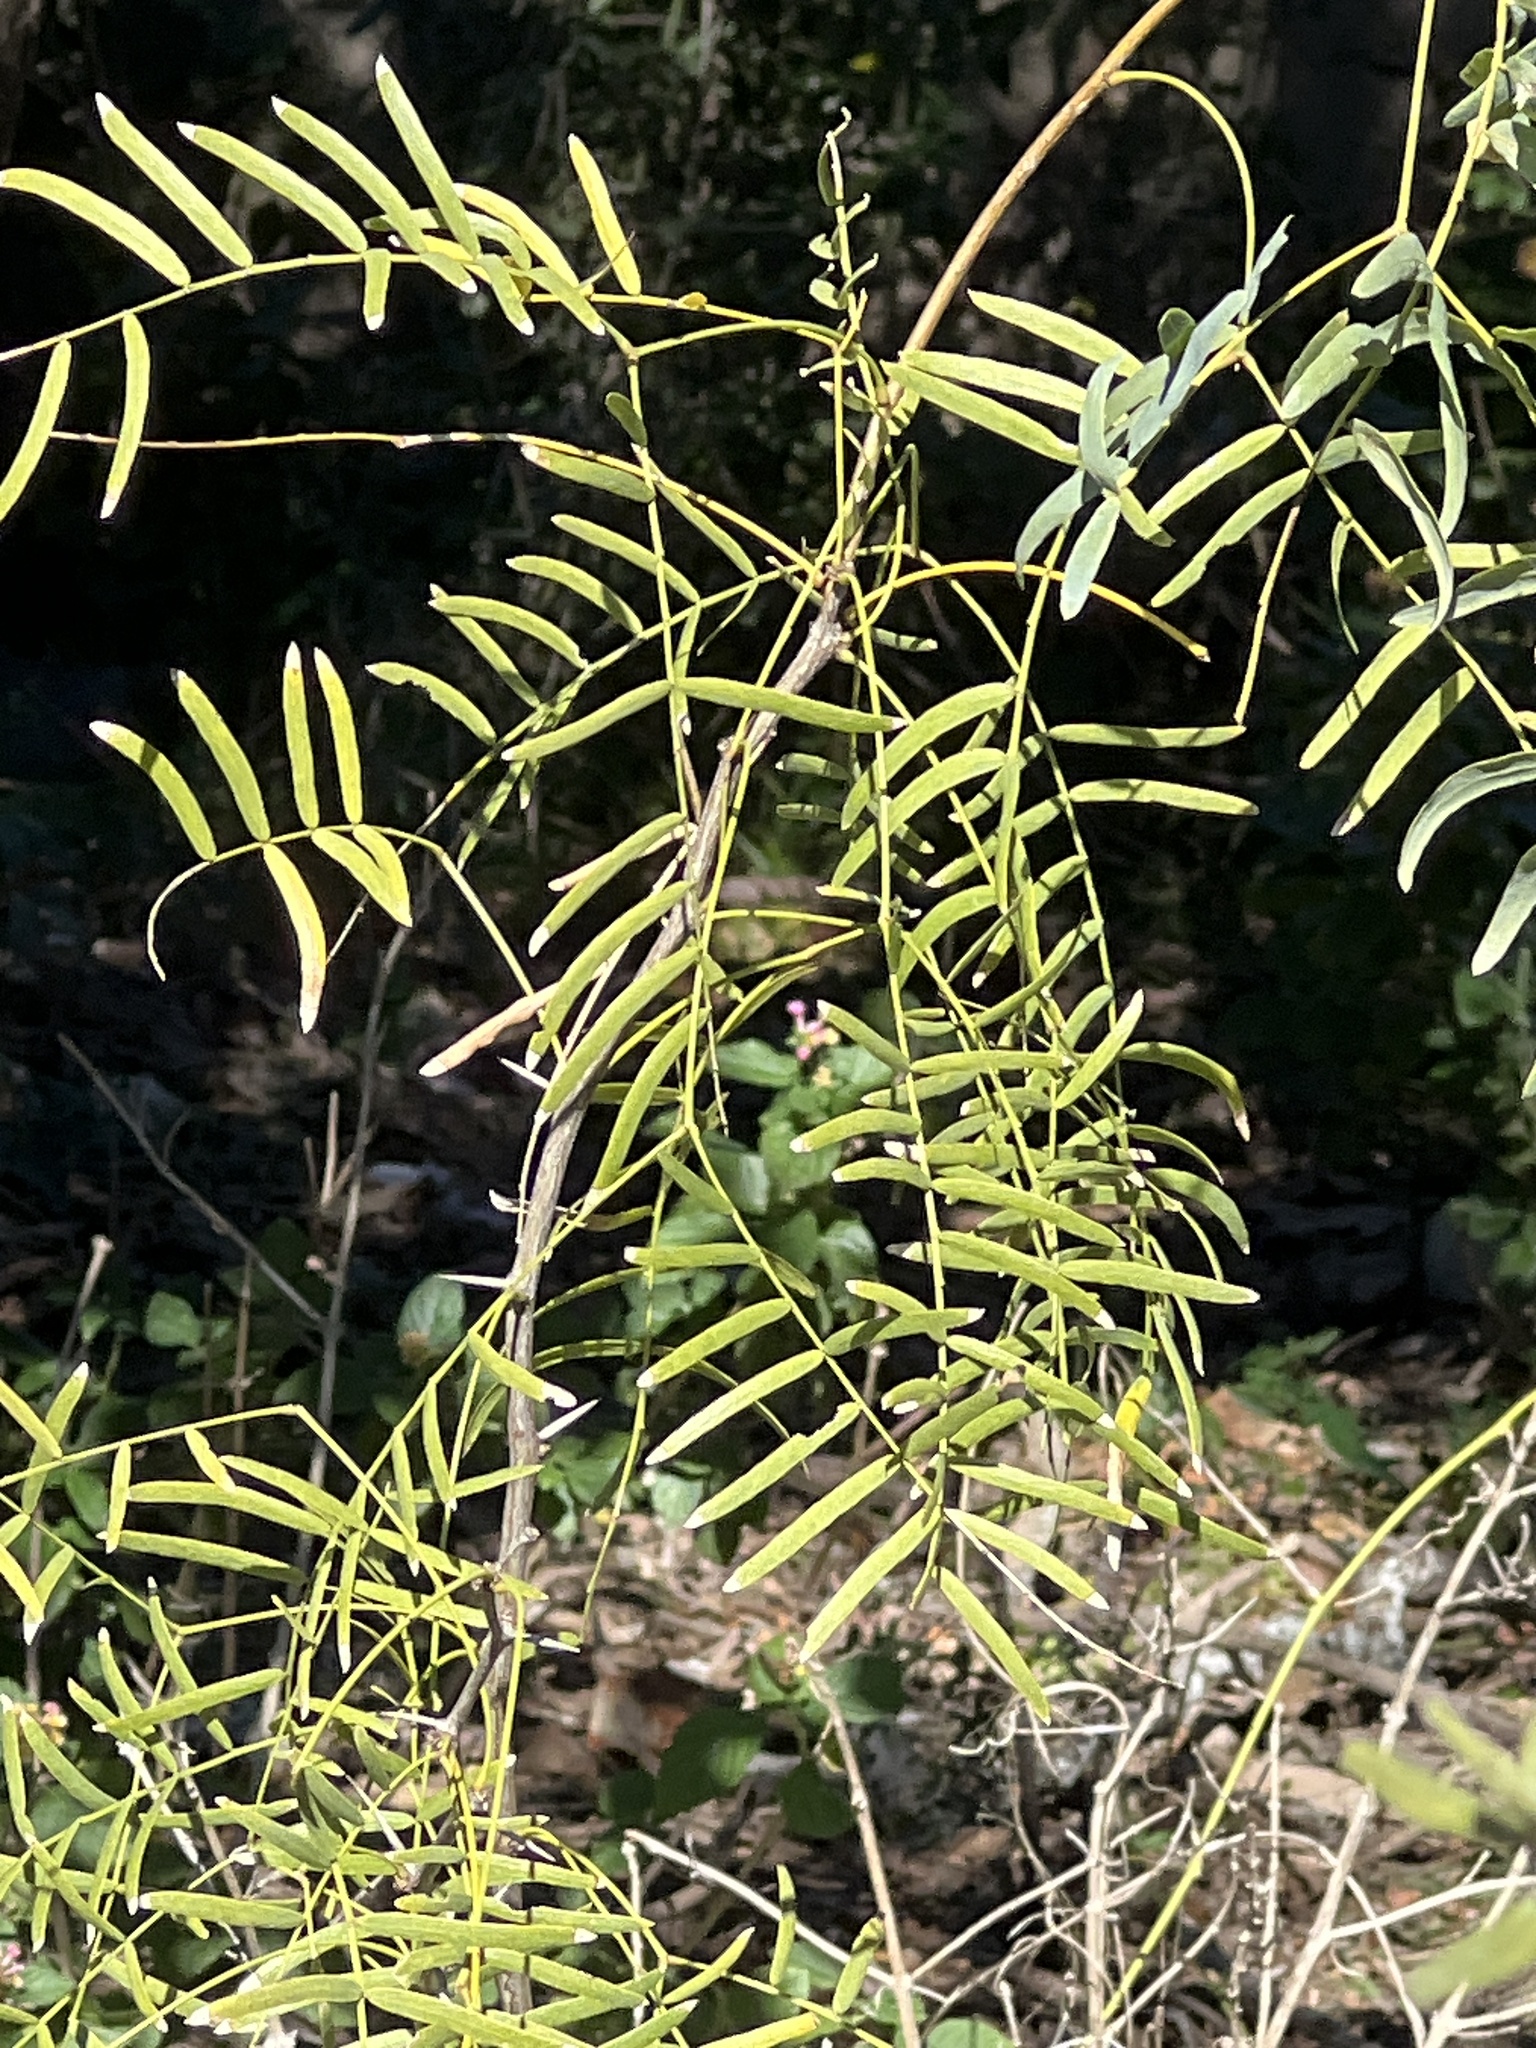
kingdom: Plantae
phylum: Tracheophyta
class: Magnoliopsida
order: Fabales
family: Fabaceae
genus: Prosopis
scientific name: Prosopis glandulosa
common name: Honey mesquite
